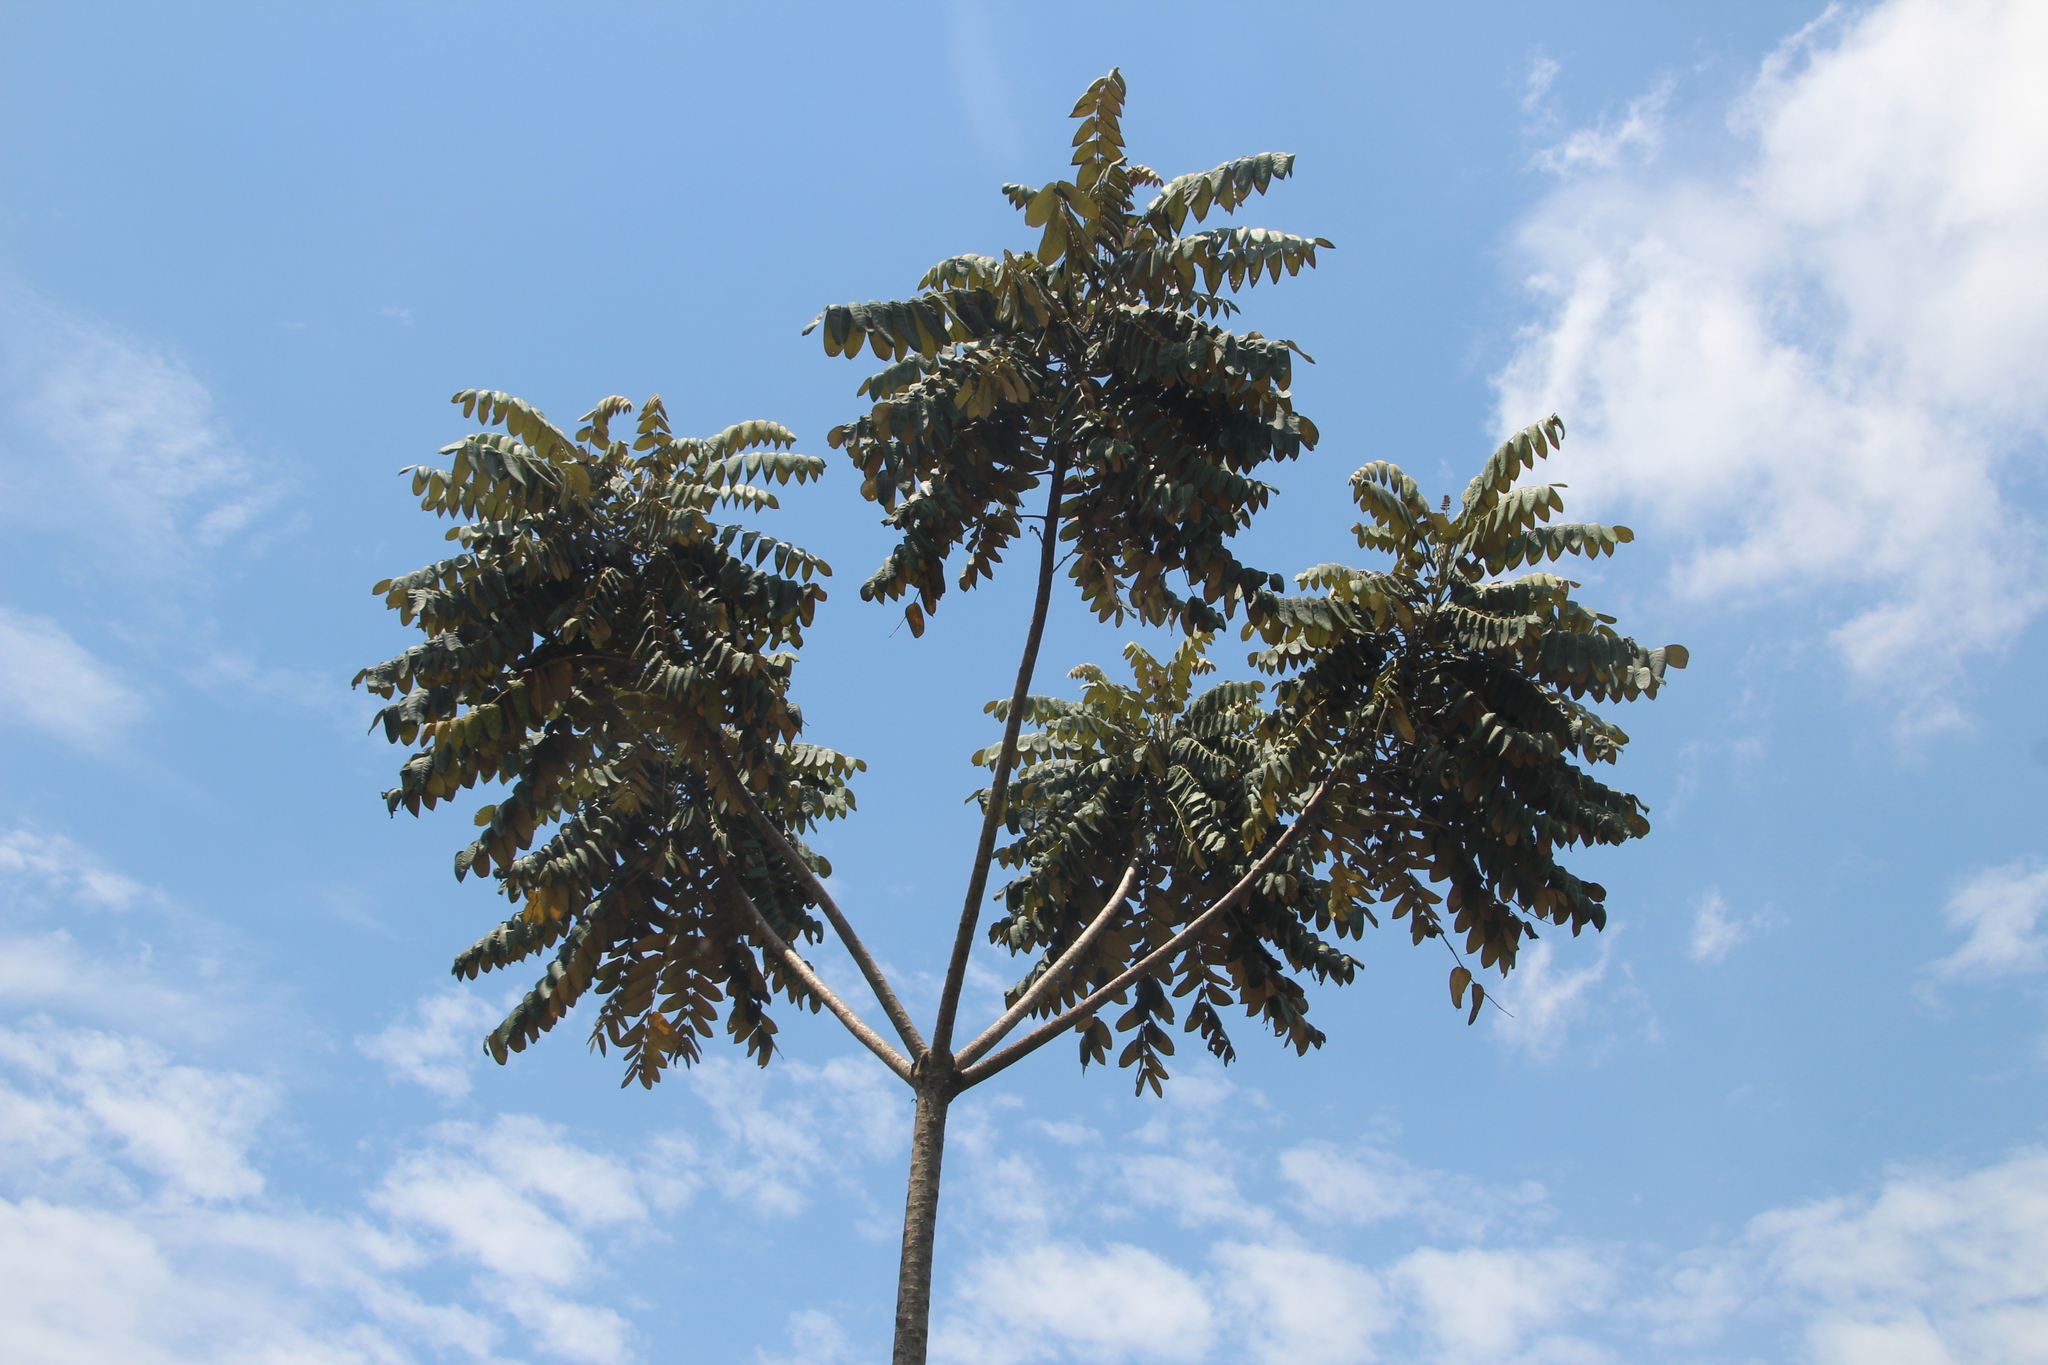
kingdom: Plantae
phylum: Tracheophyta
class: Magnoliopsida
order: Apiales
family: Araliaceae
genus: Polyscias
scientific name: Polyscias fulva
